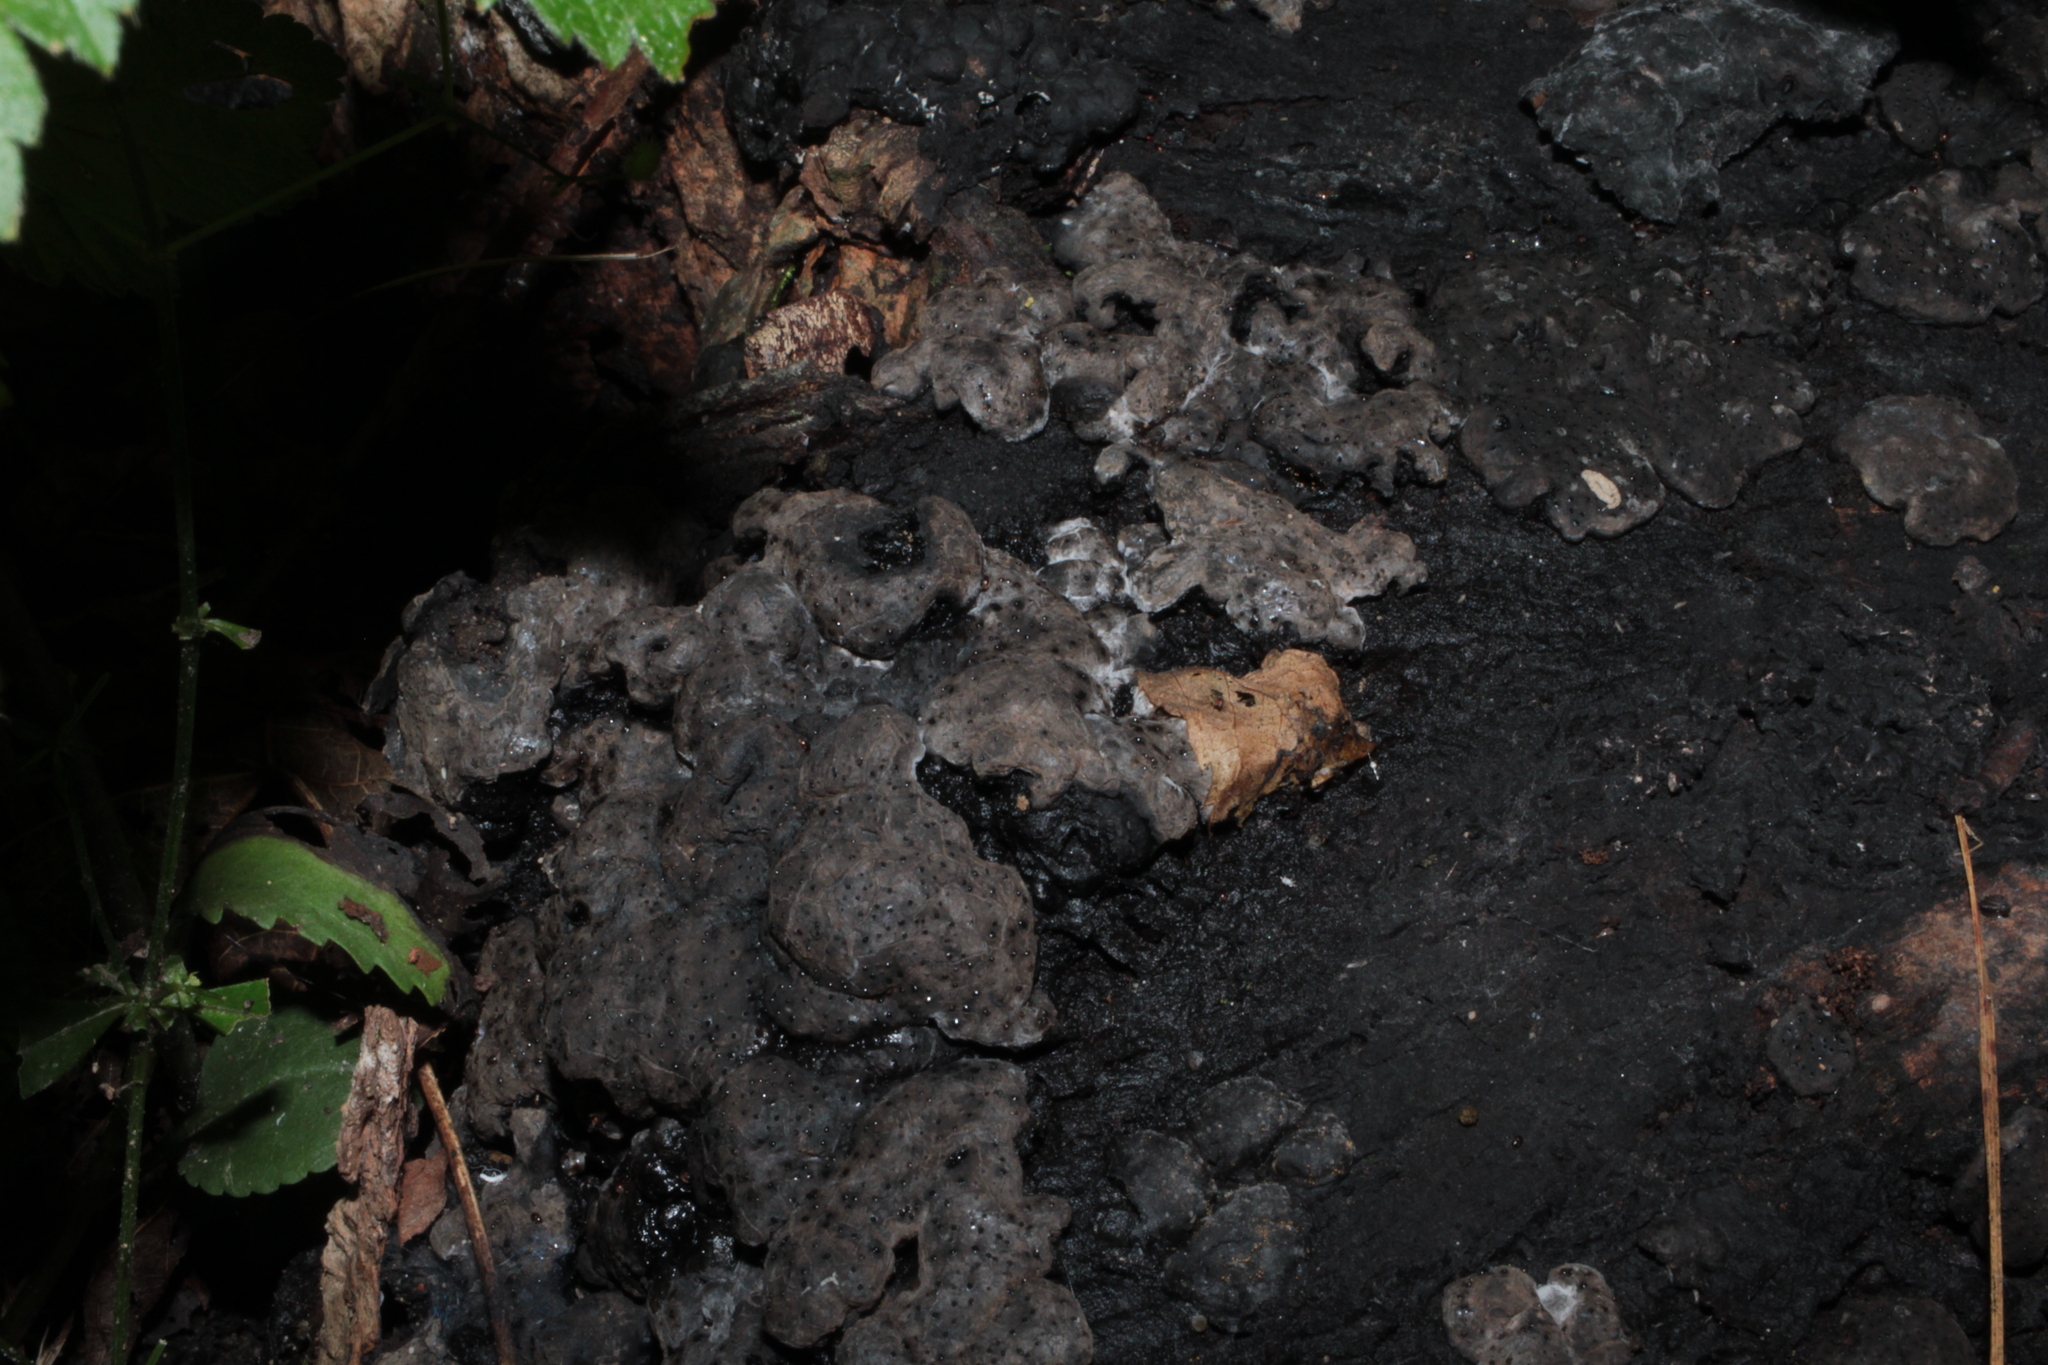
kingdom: Fungi
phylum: Ascomycota
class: Sordariomycetes
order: Xylariales
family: Xylariaceae
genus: Kretzschmaria
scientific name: Kretzschmaria deusta
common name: Brittle cinder
